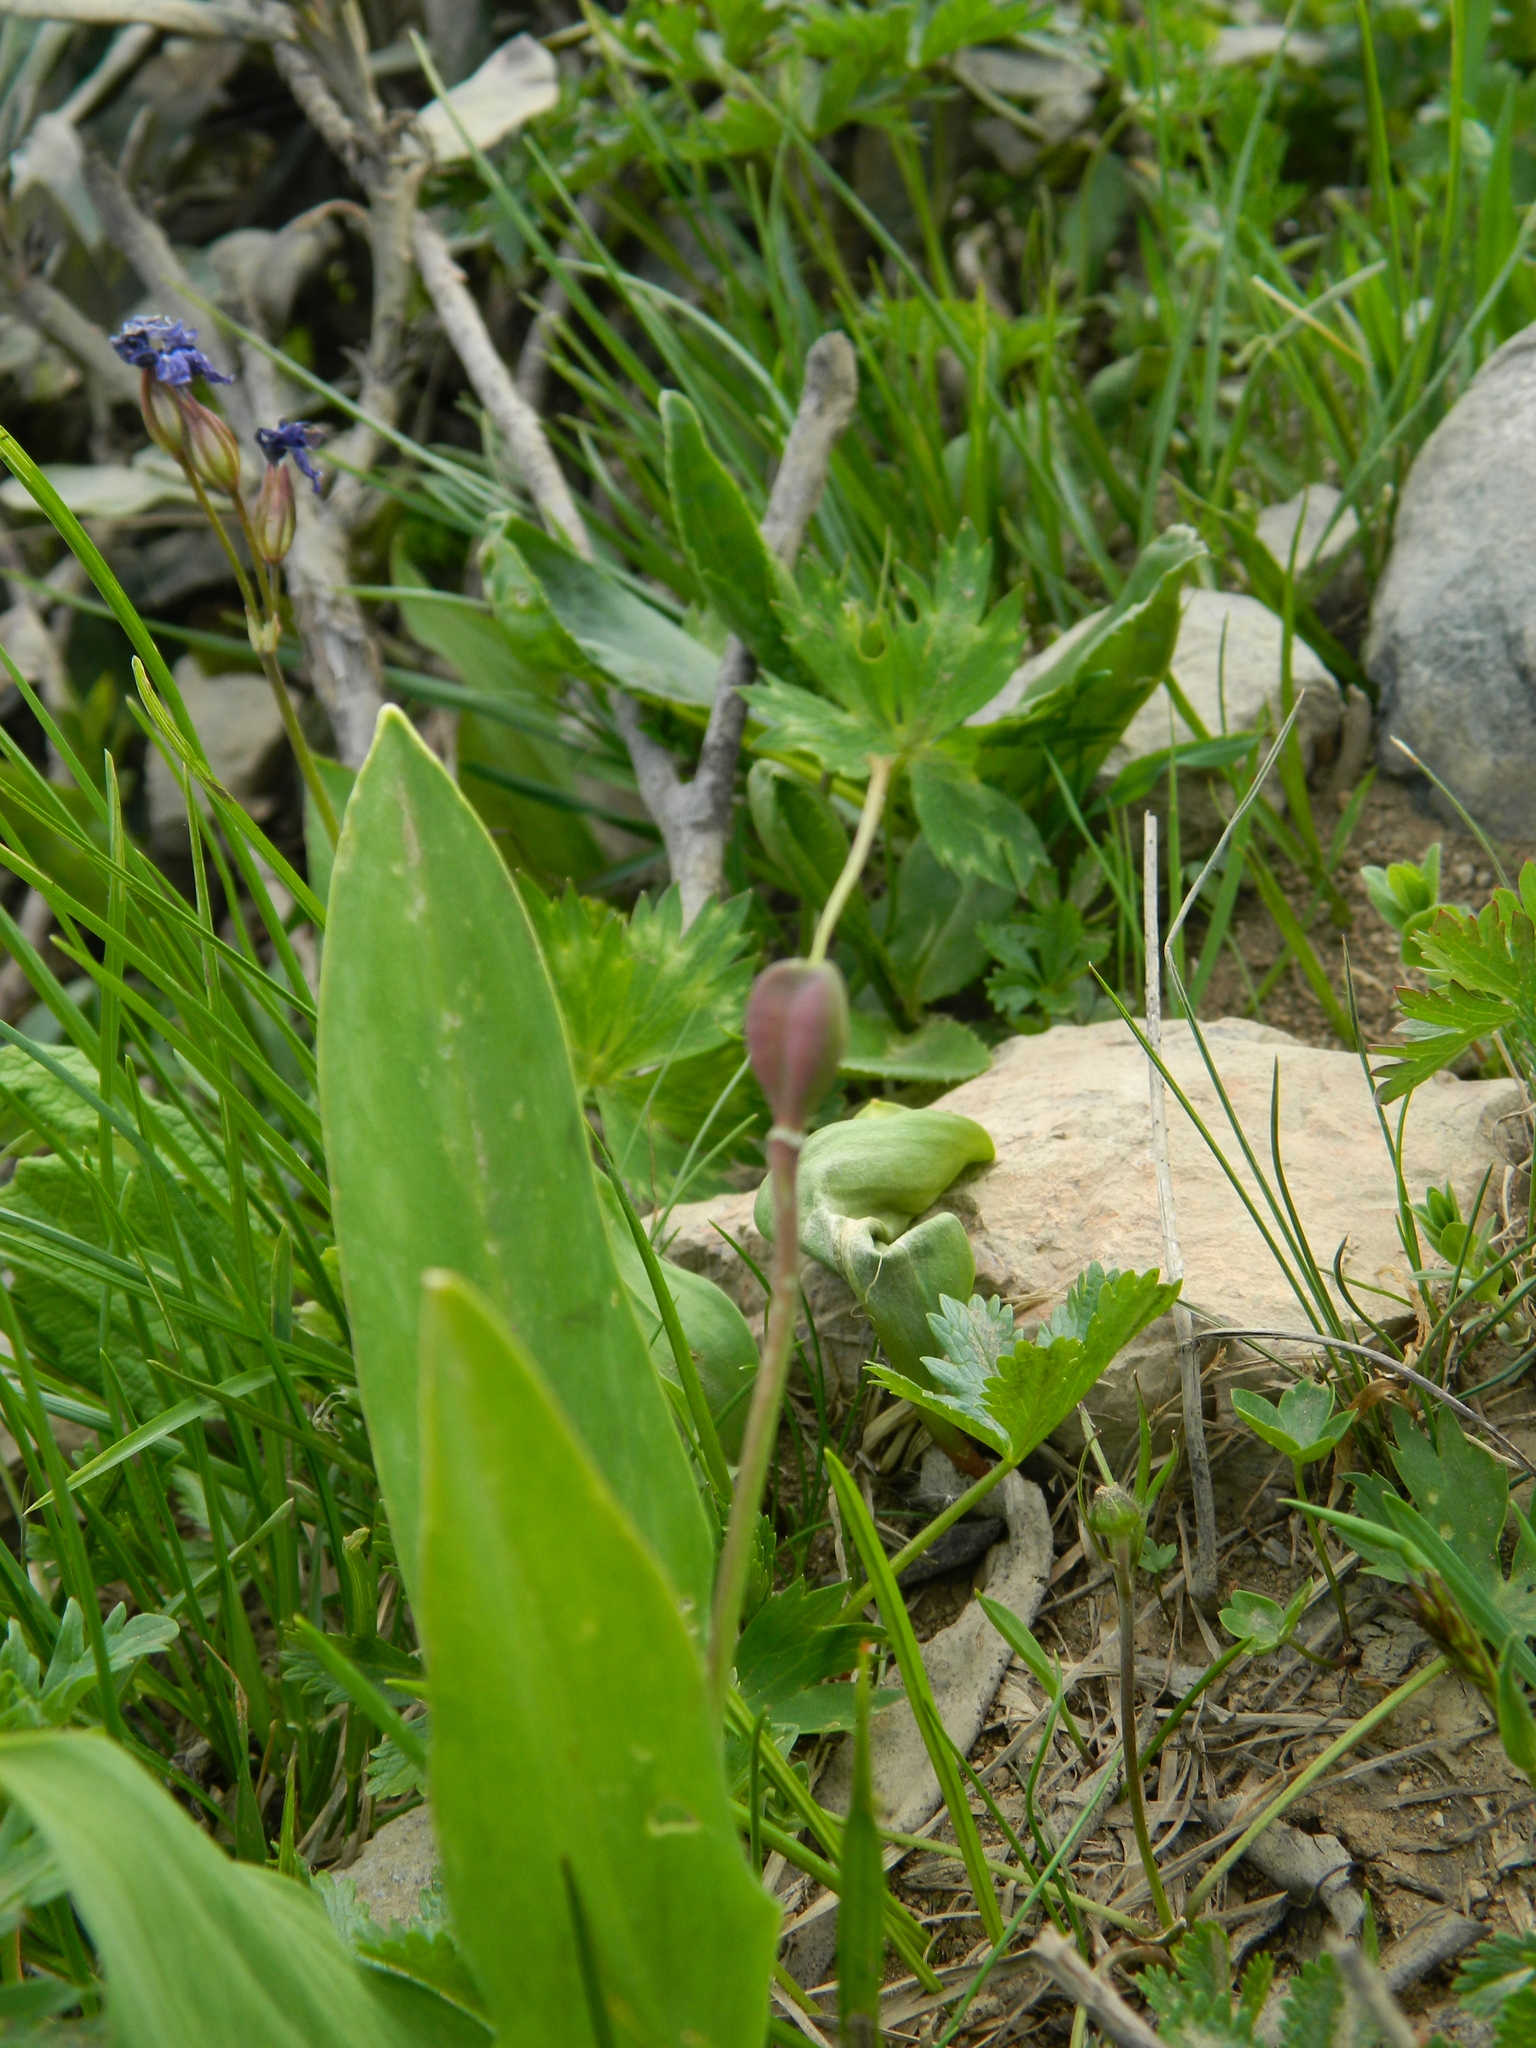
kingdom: Plantae
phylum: Tracheophyta
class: Liliopsida
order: Liliales
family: Liliaceae
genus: Erythronium
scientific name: Erythronium caucasicum
